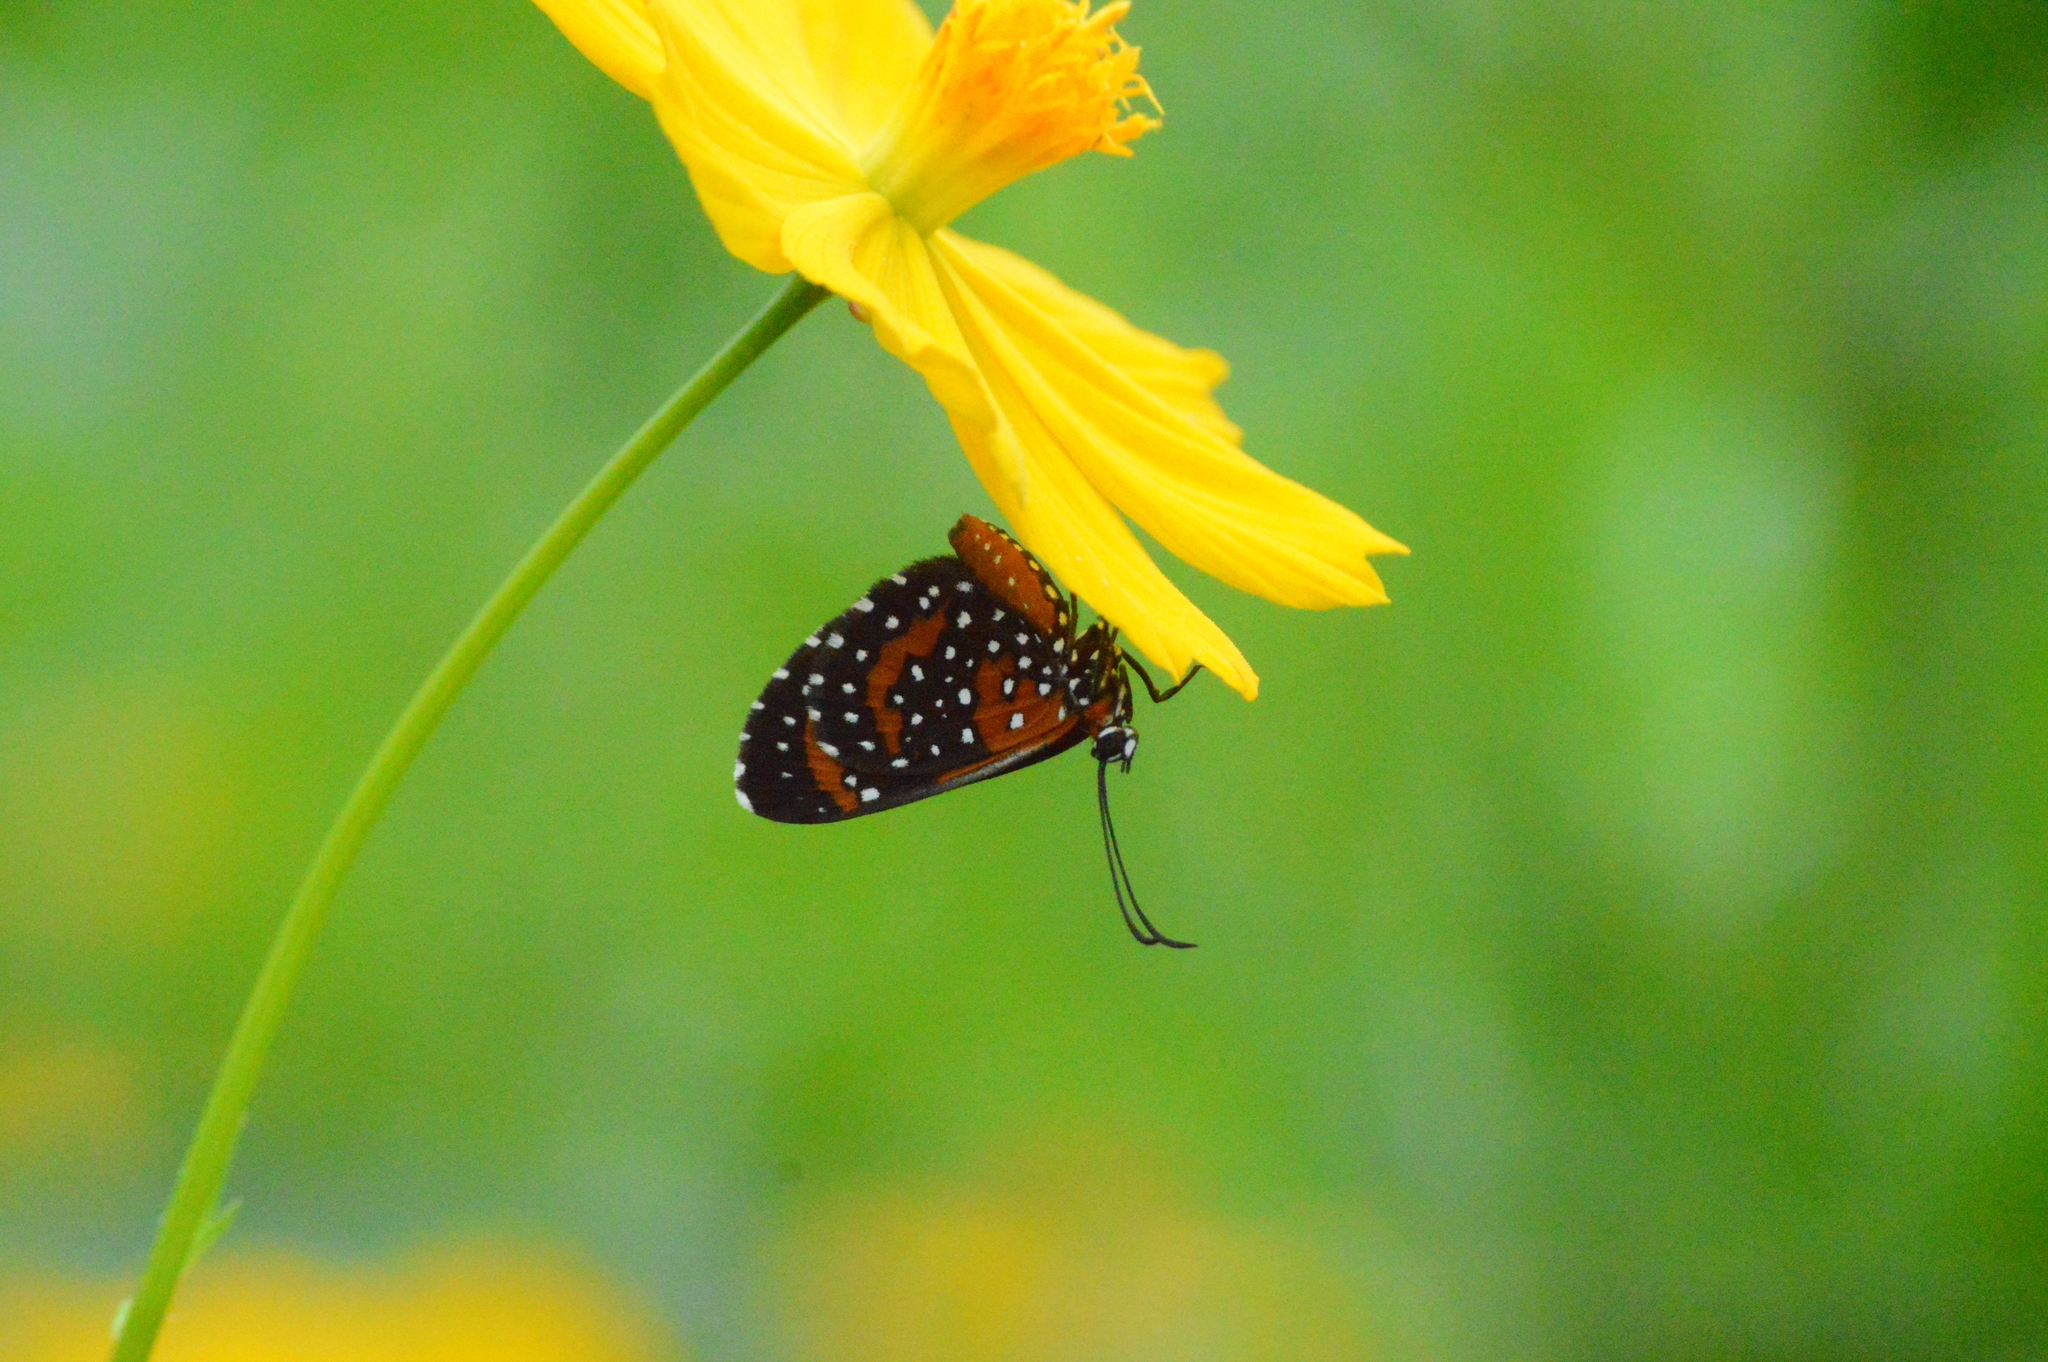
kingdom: Animalia
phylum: Arthropoda
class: Insecta
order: Lepidoptera
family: Riodinidae
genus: Stalachtis
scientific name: Stalachtis phlegia
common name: Dotted prince
